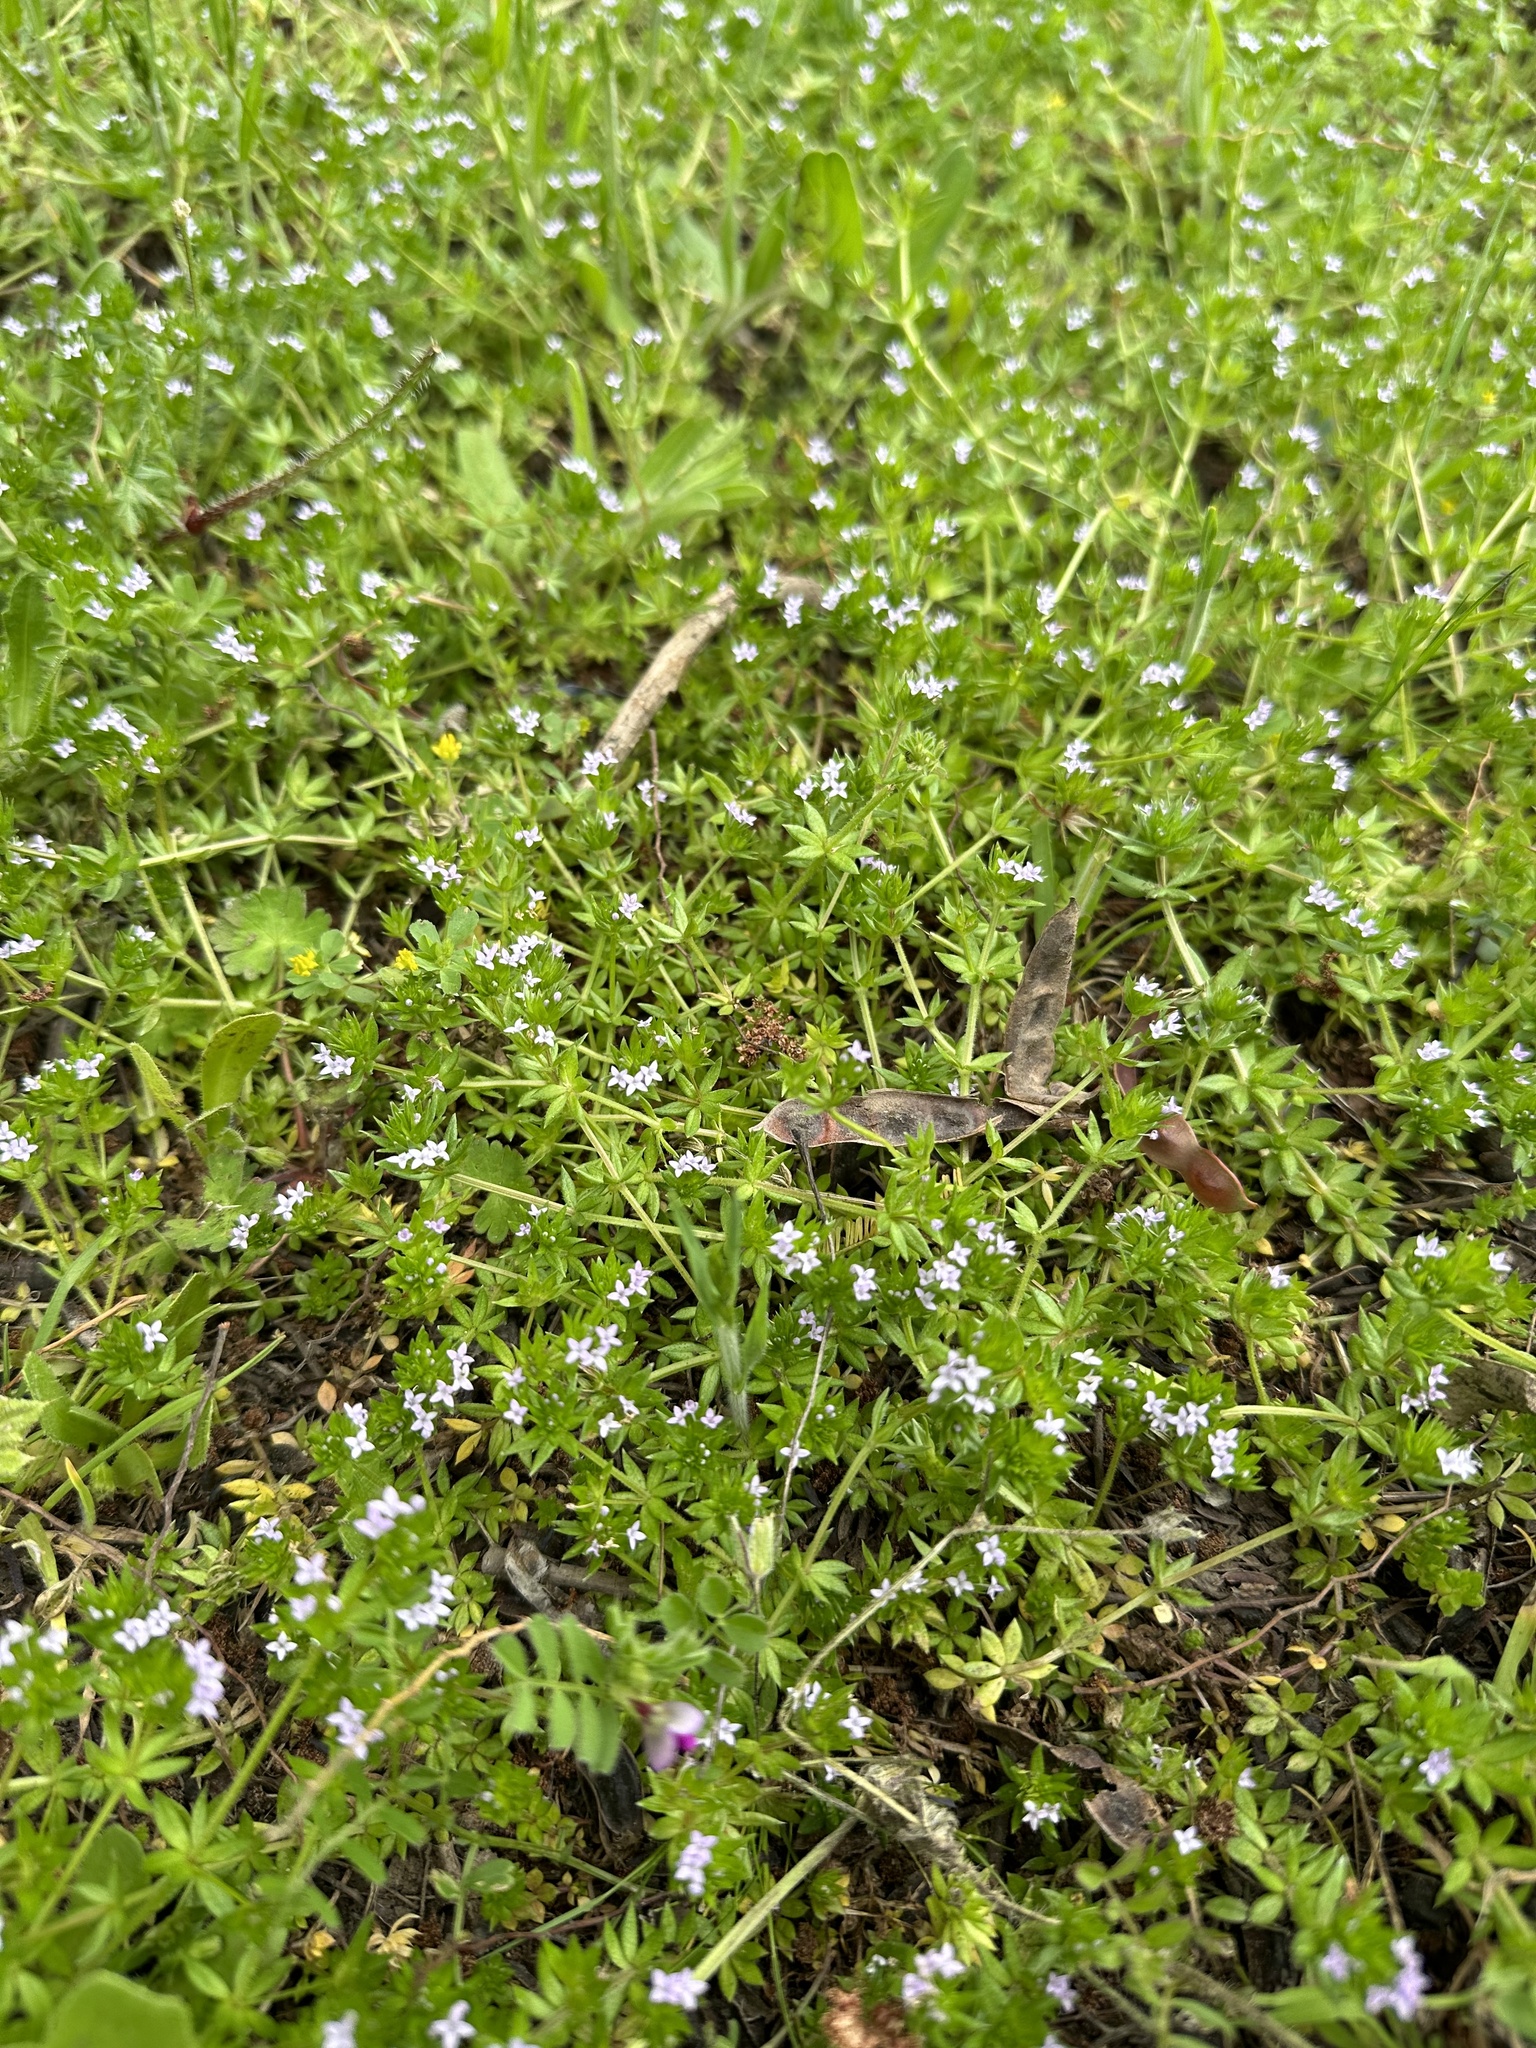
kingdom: Plantae
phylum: Tracheophyta
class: Magnoliopsida
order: Gentianales
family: Rubiaceae
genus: Oldenlandia
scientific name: Oldenlandia salzmannii
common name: Salzmann's mille graines
